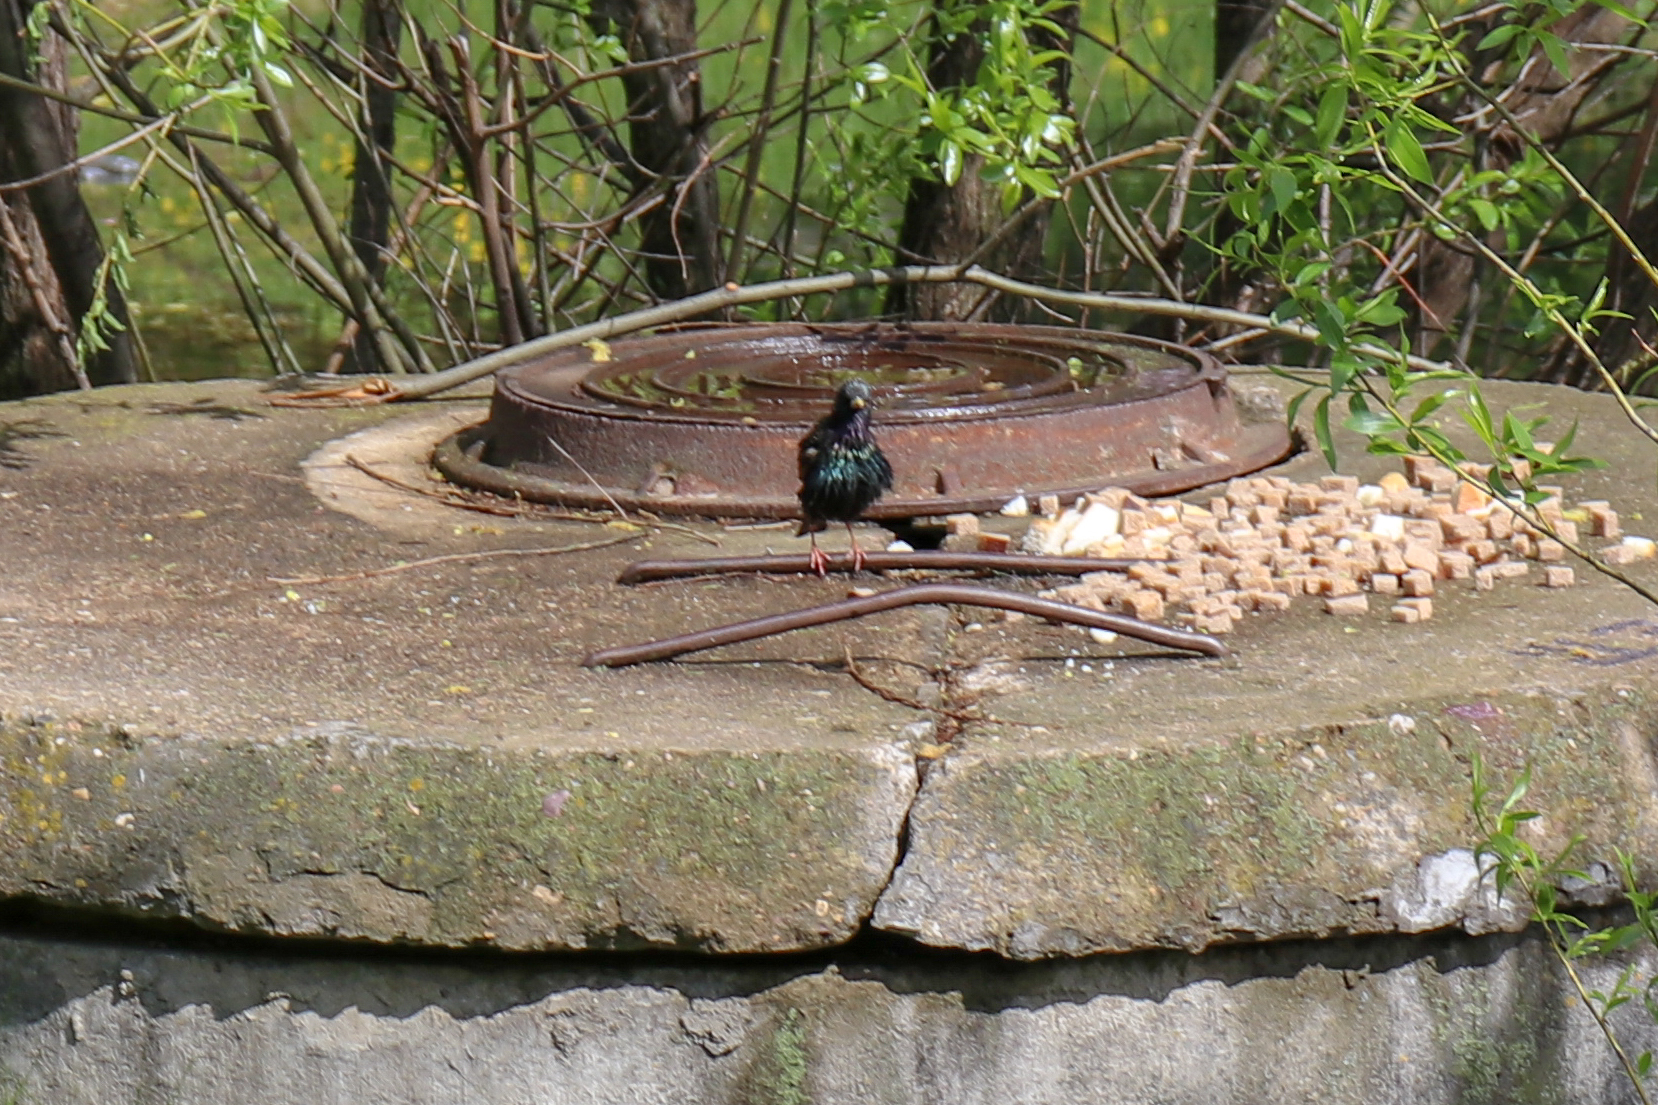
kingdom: Animalia
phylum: Chordata
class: Aves
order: Passeriformes
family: Sturnidae
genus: Sturnus
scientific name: Sturnus vulgaris
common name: Common starling
